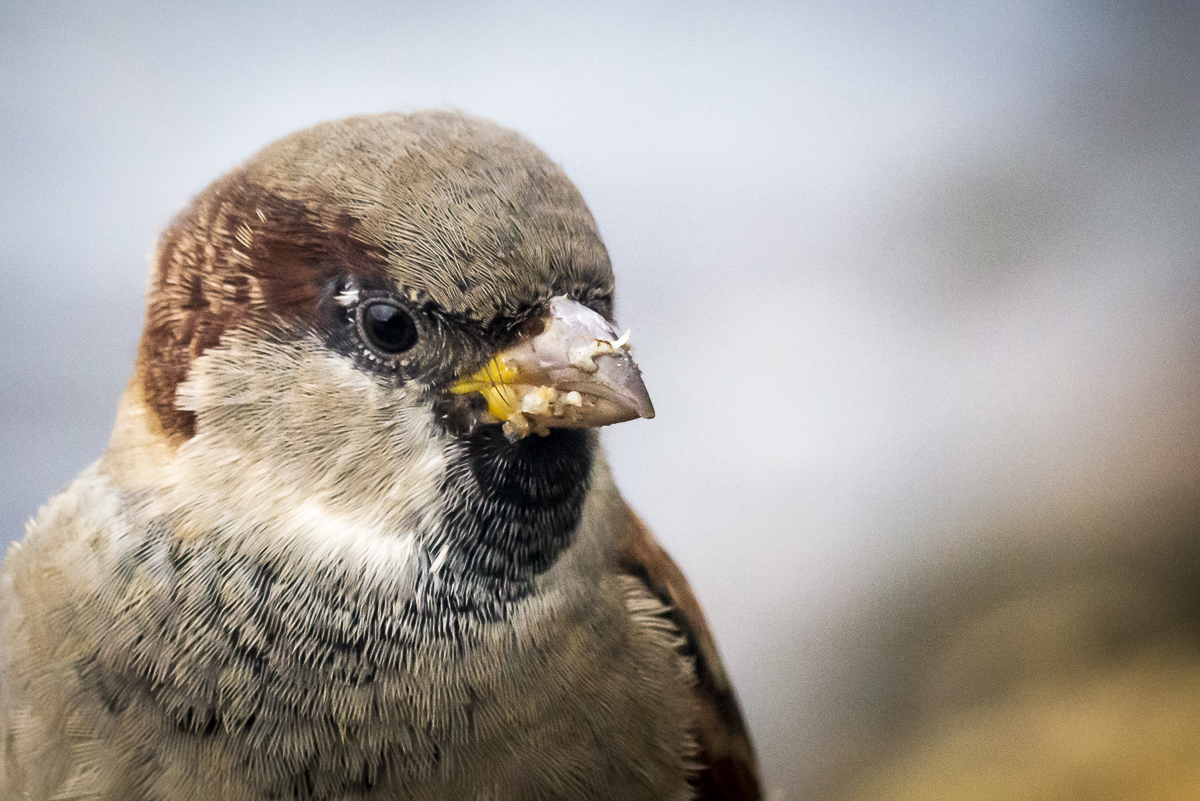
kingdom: Animalia
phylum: Chordata
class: Aves
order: Passeriformes
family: Passeridae
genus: Passer
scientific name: Passer domesticus
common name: House sparrow
